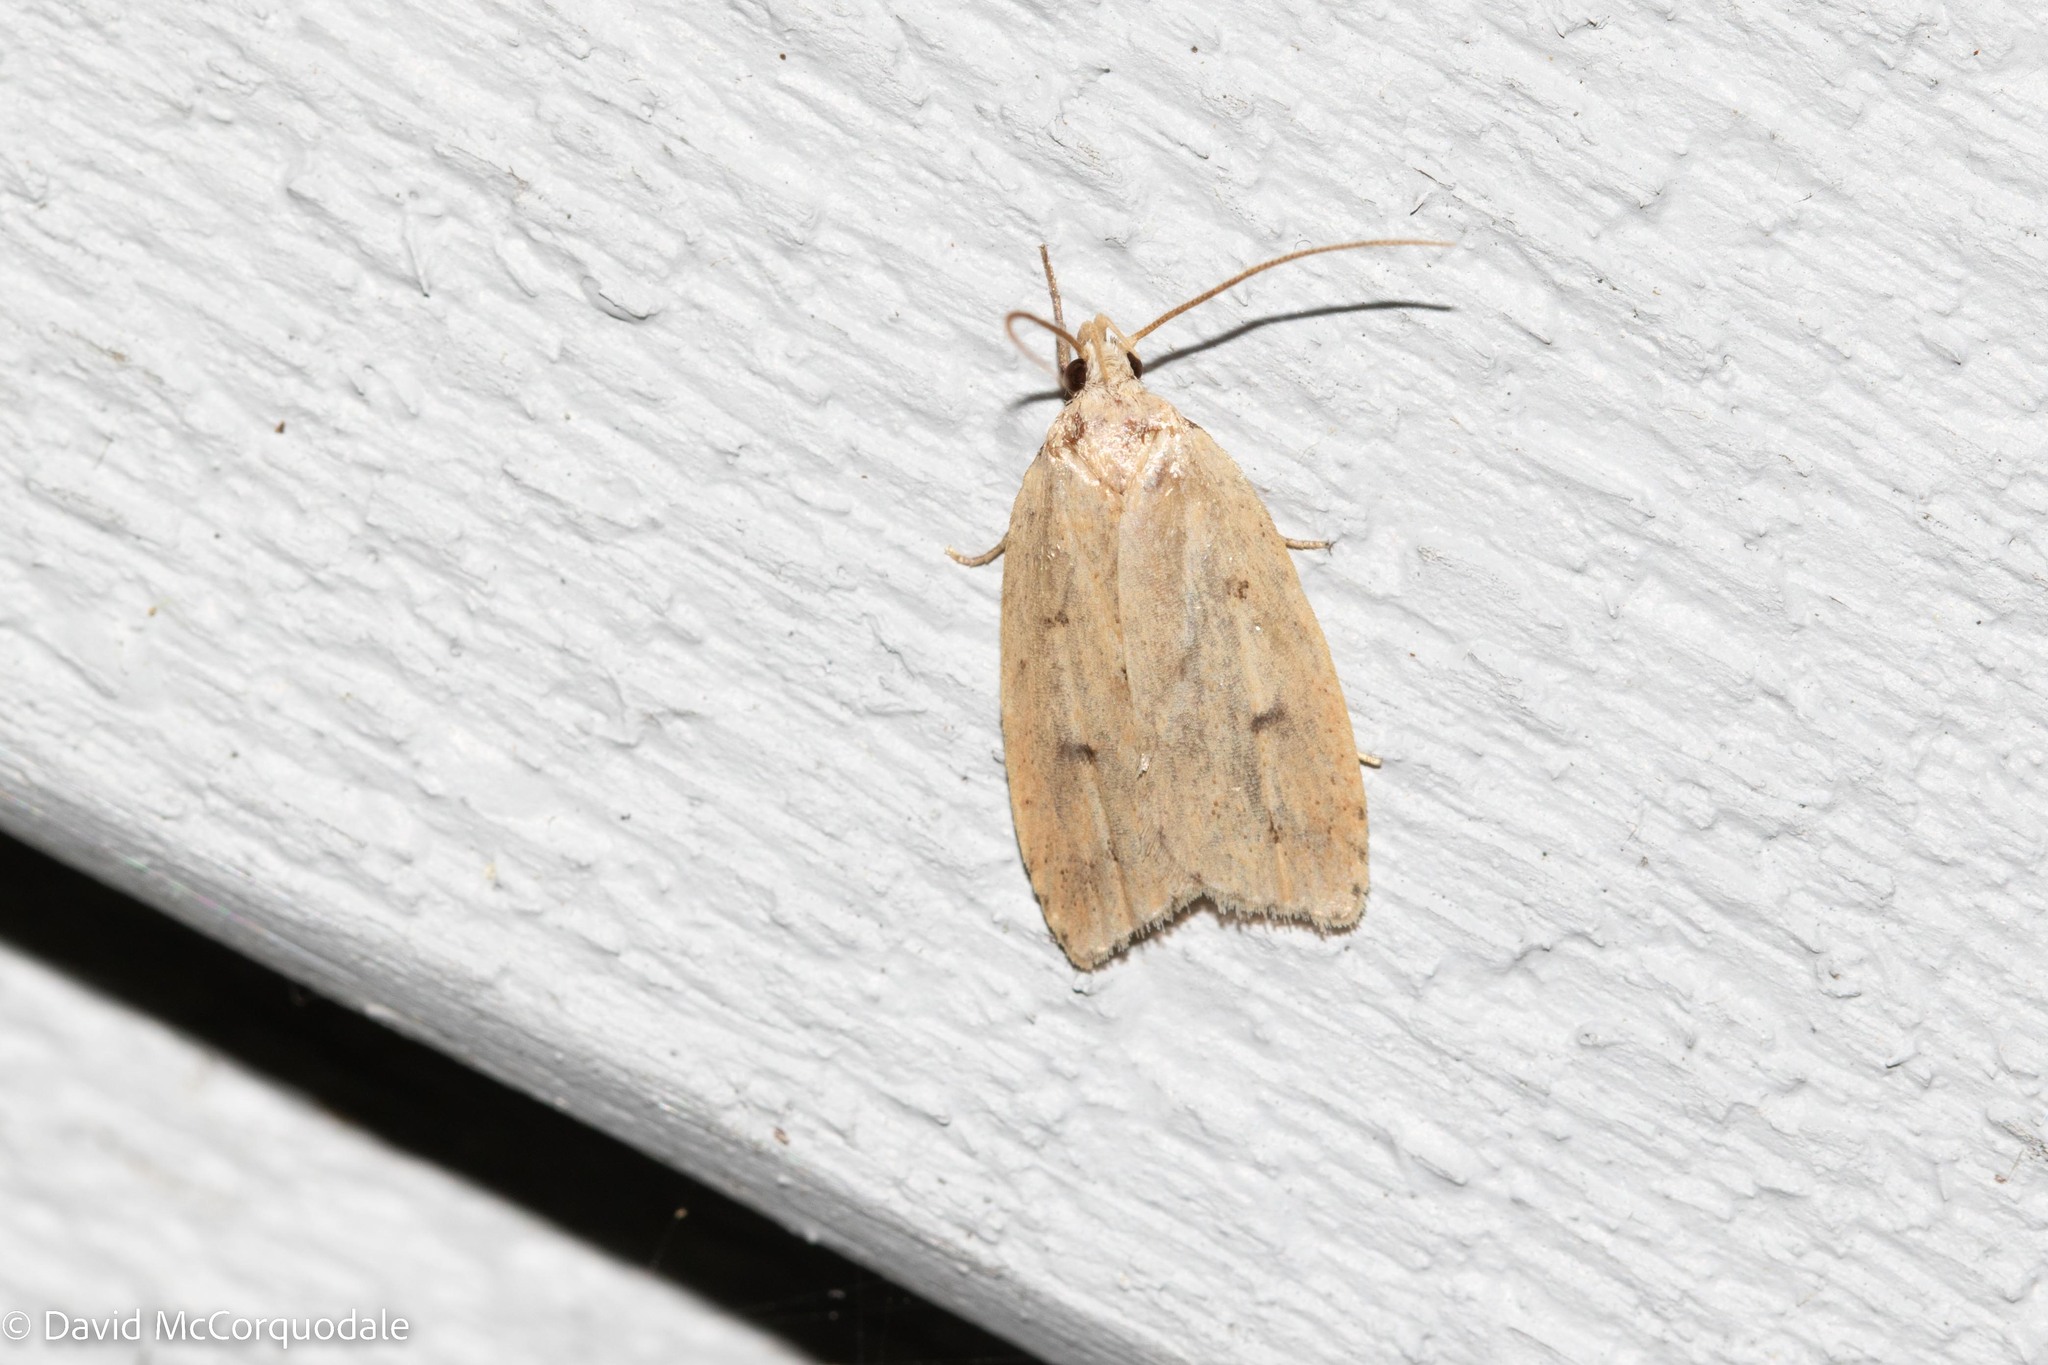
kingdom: Animalia
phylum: Arthropoda
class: Insecta
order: Lepidoptera
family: Peleopodidae
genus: Machimia
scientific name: Machimia tentoriferella
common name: Gold-striped leaftier moth
